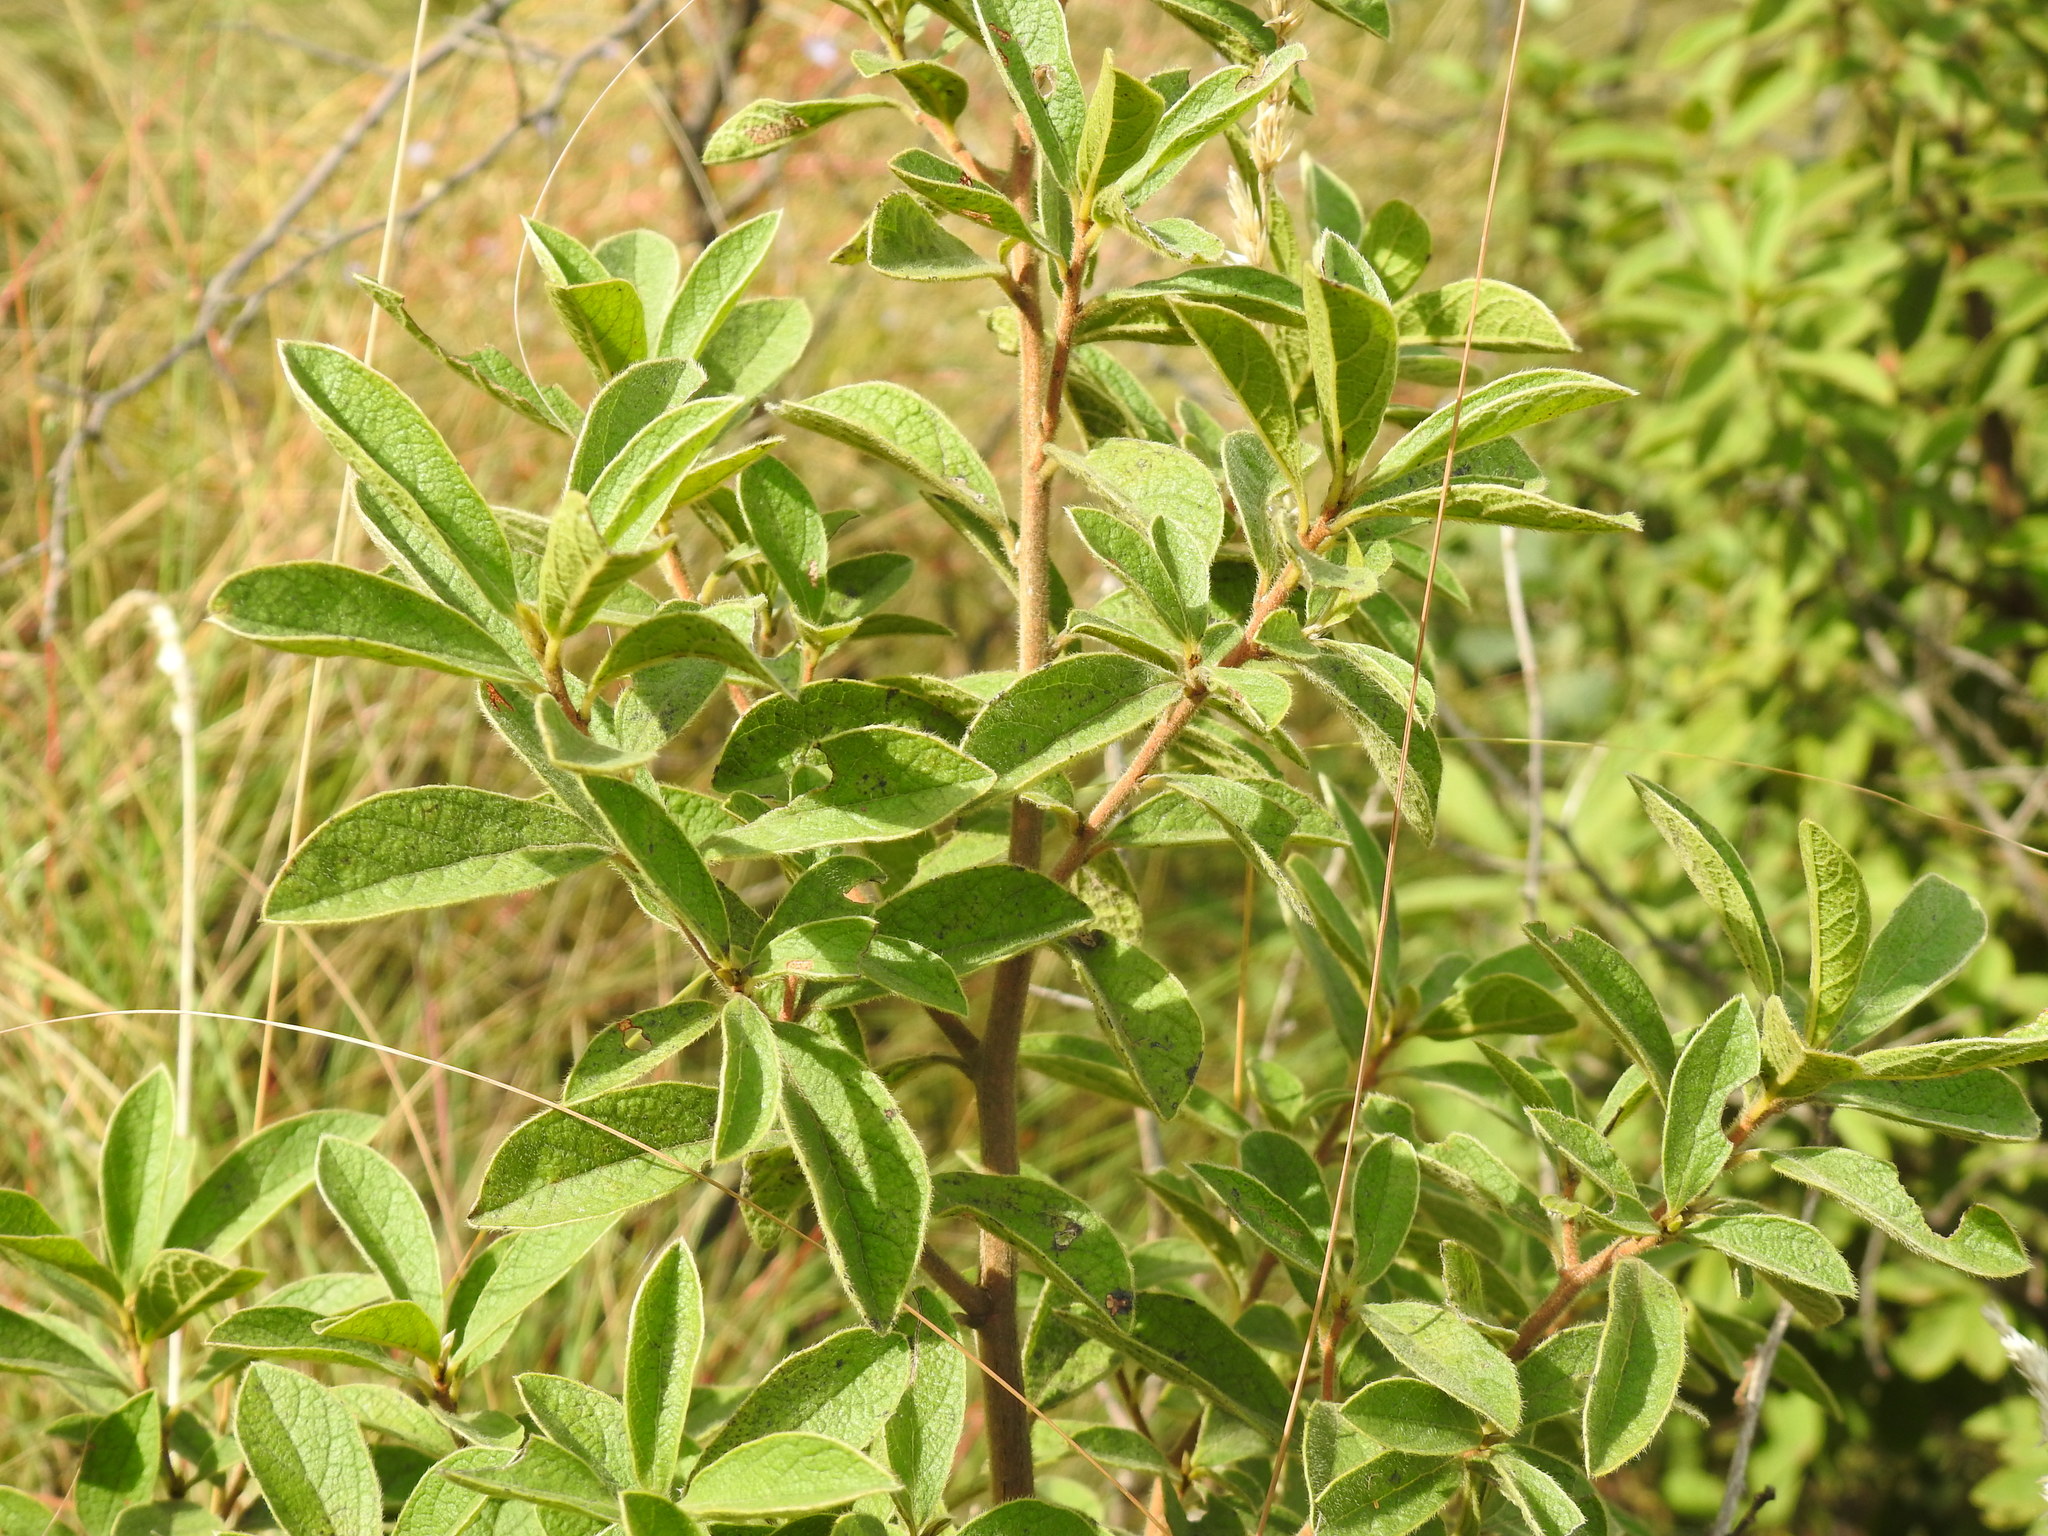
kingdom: Plantae
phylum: Tracheophyta
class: Magnoliopsida
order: Ericales
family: Ebenaceae
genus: Diospyros
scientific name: Diospyros lycioides
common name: Red star apple
